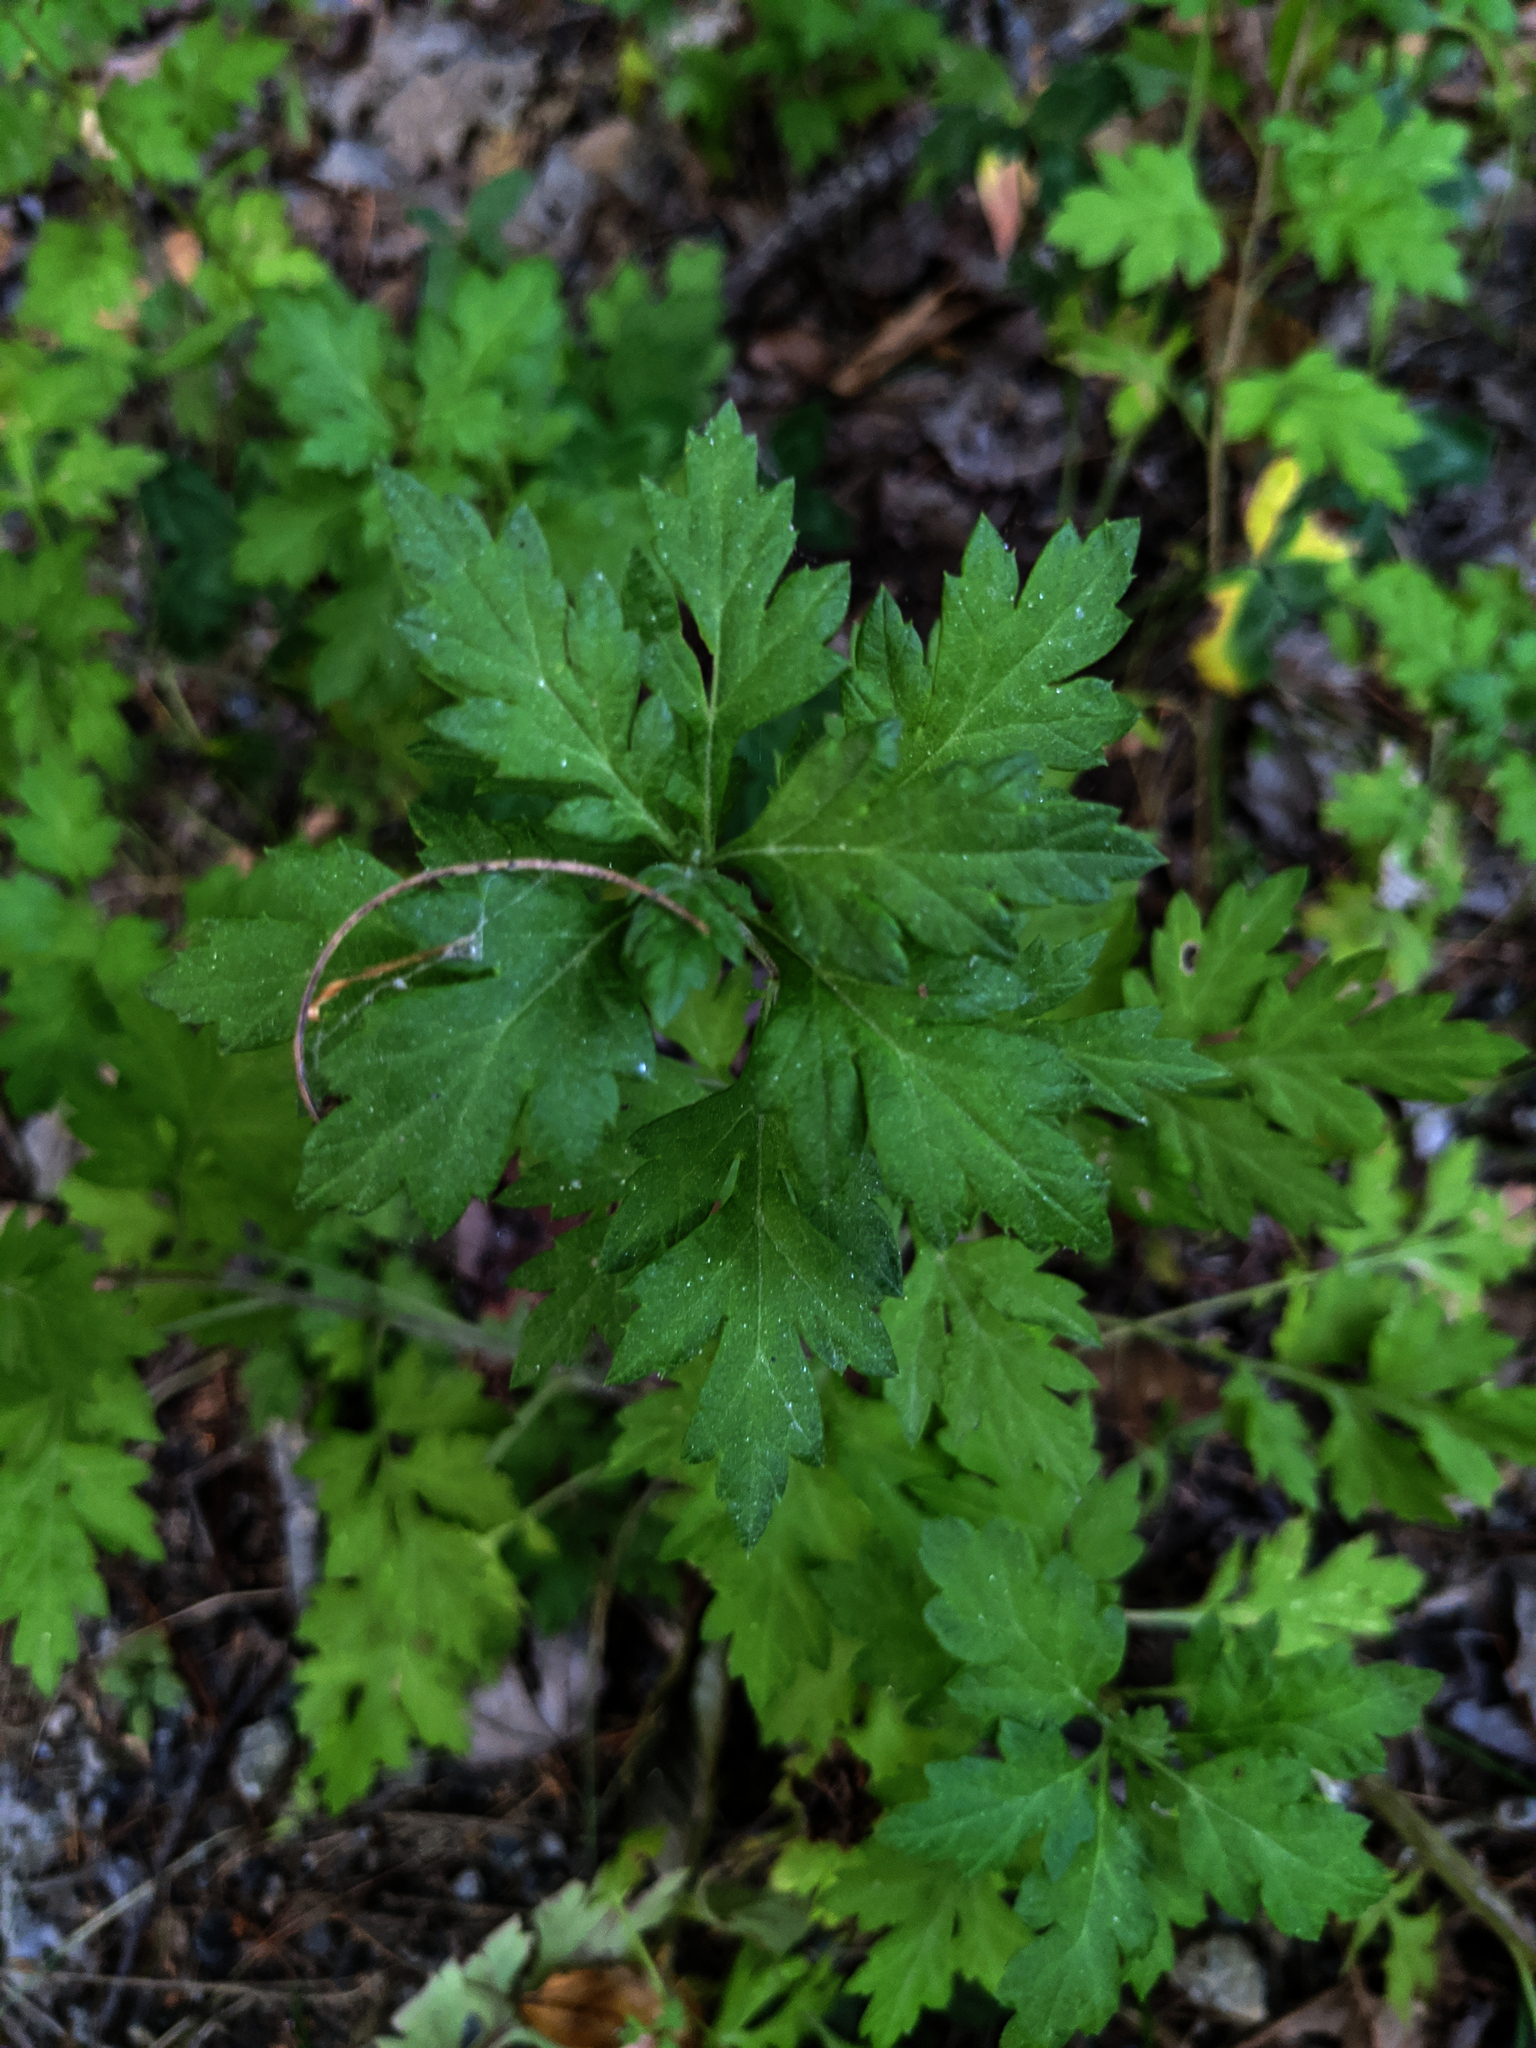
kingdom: Plantae
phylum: Tracheophyta
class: Magnoliopsida
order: Asterales
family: Asteraceae
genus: Artemisia
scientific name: Artemisia vulgaris
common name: Mugwort
